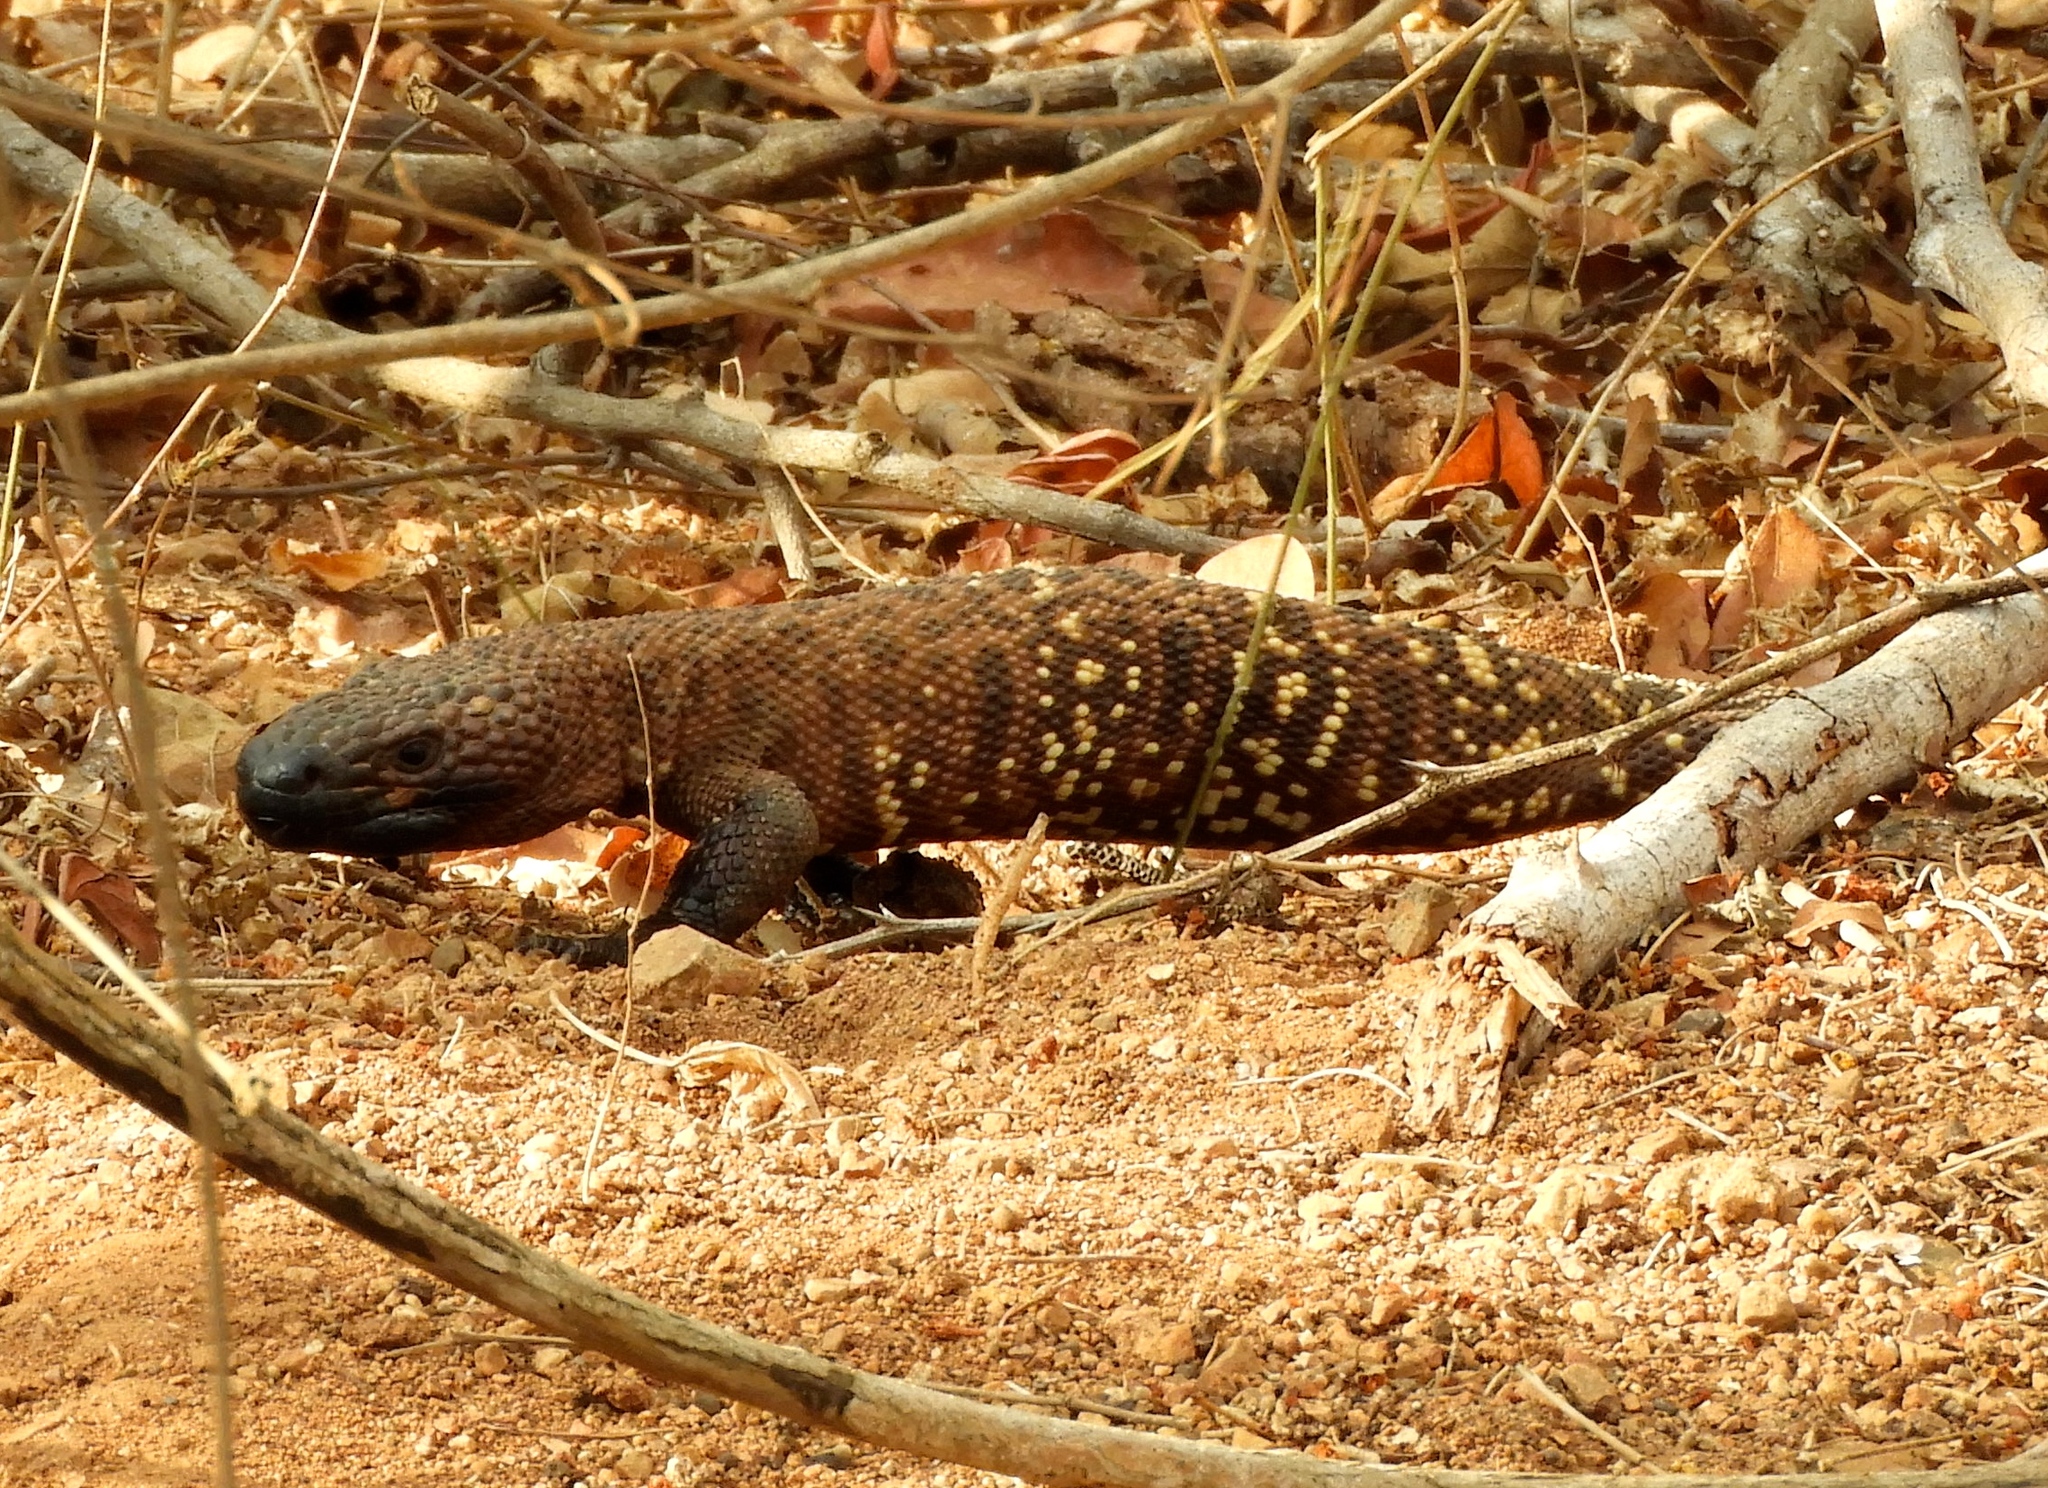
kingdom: Animalia
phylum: Chordata
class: Squamata
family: Helodermatidae
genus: Heloderma
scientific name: Heloderma horridum
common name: Mexican beaded lizard
